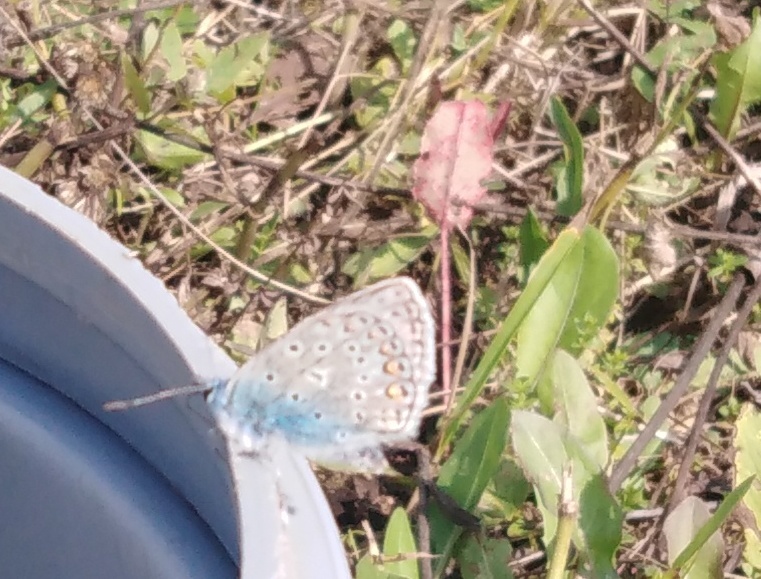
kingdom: Animalia
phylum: Arthropoda
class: Insecta
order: Lepidoptera
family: Lycaenidae
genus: Polyommatus
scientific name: Polyommatus icarus
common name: Common blue
